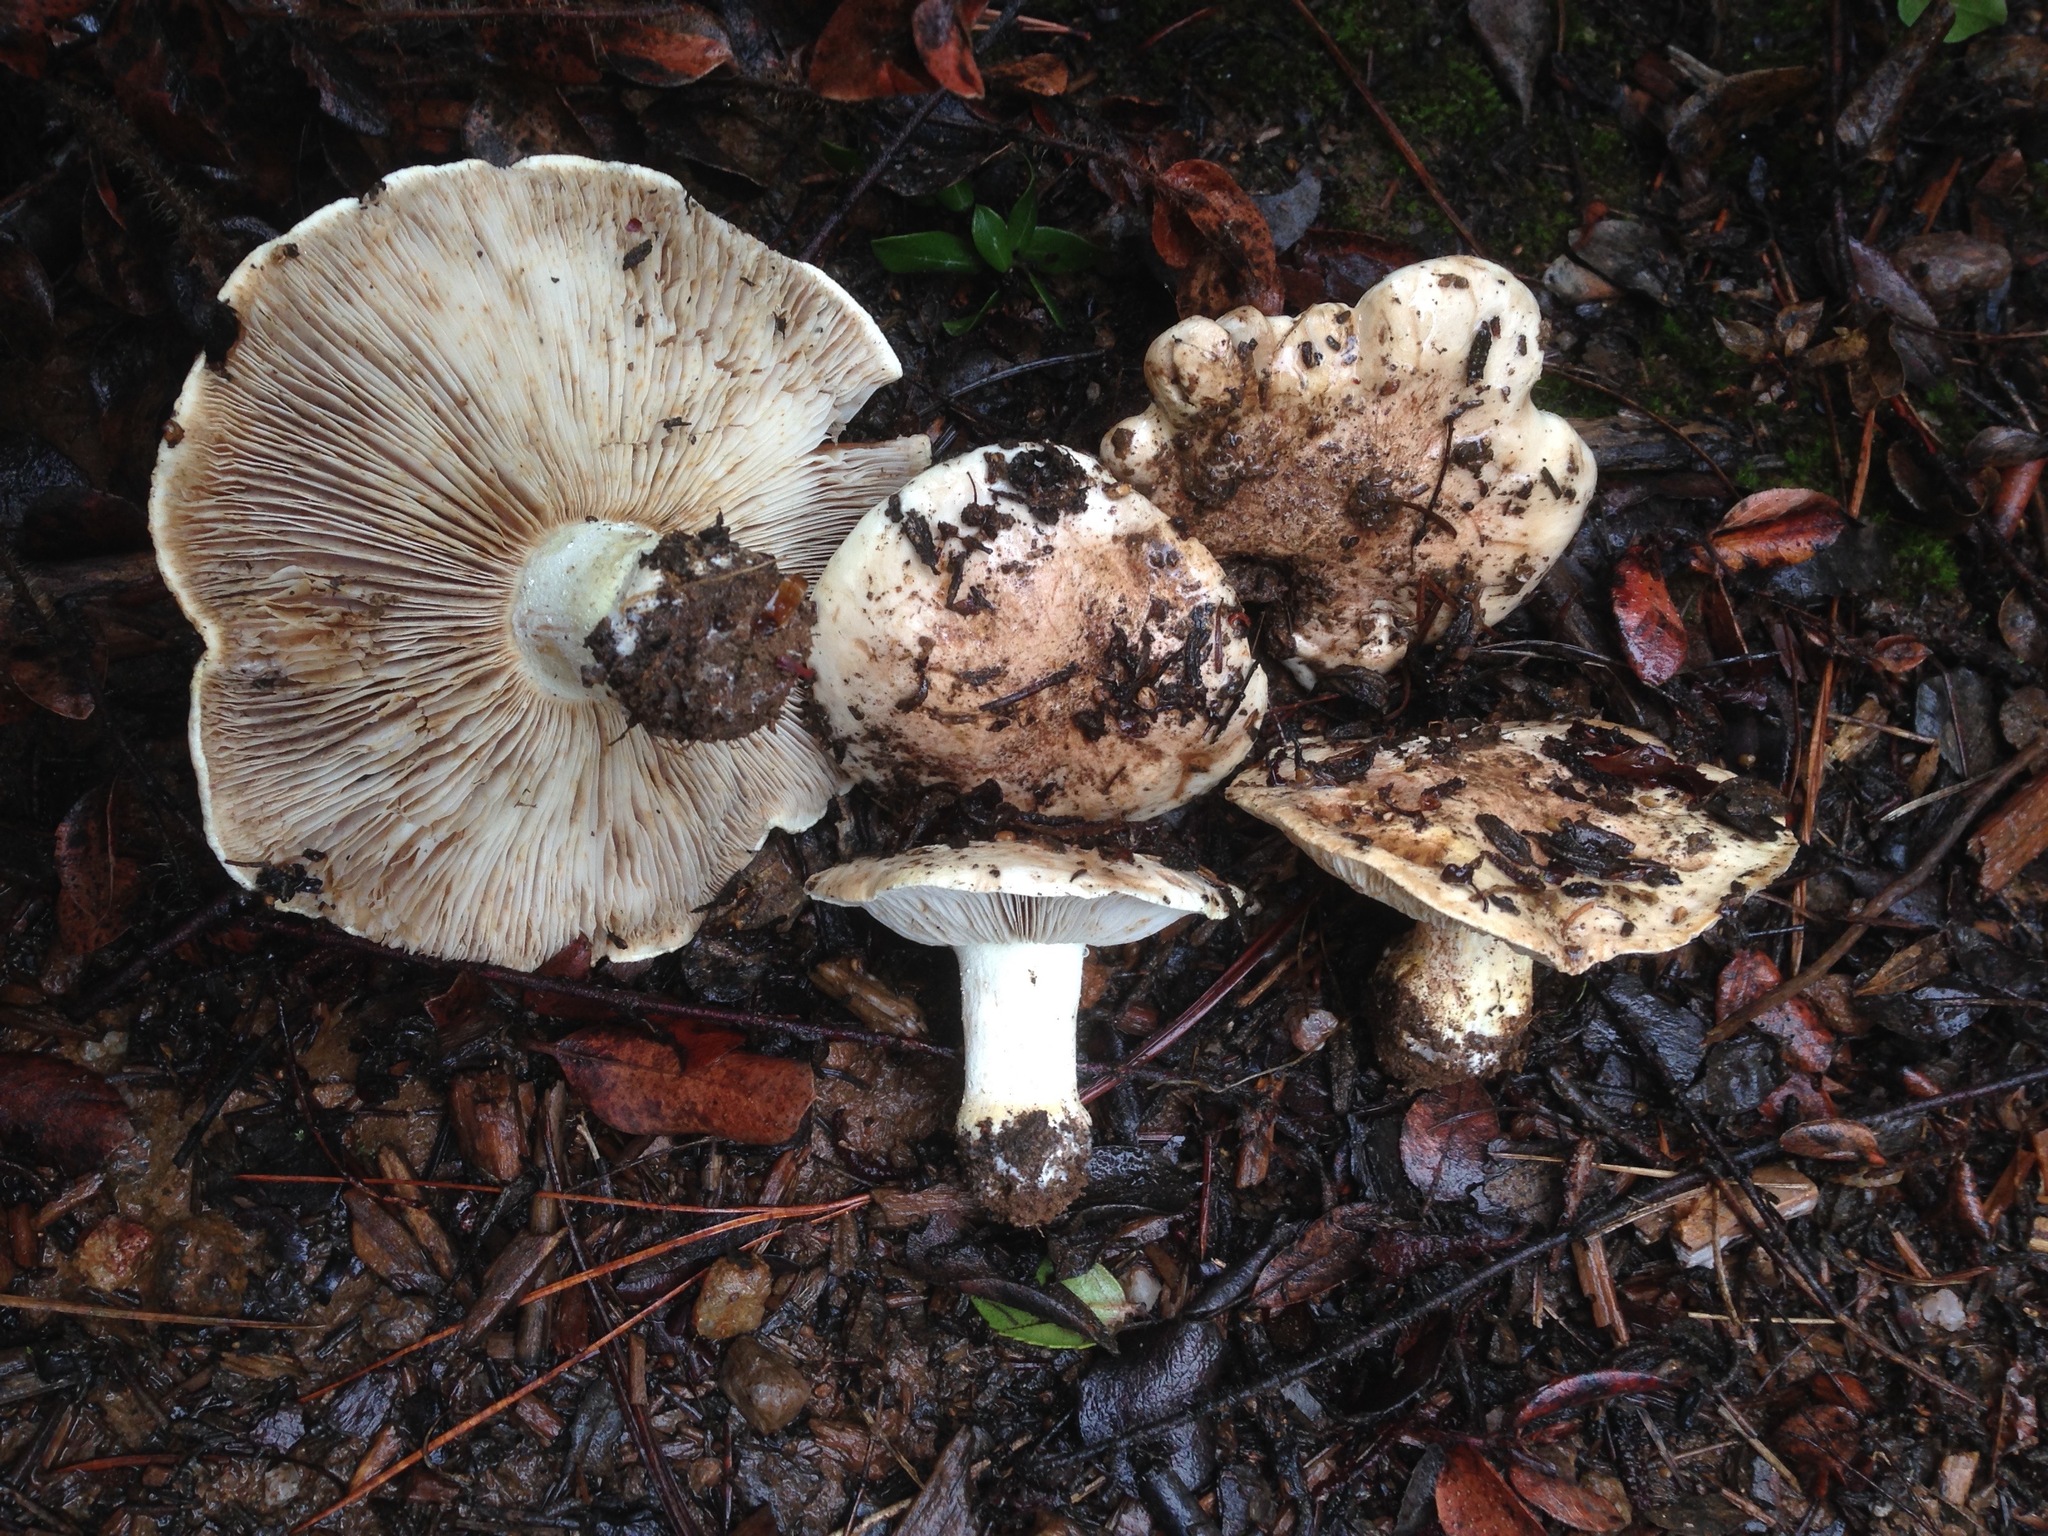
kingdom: Fungi
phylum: Basidiomycota
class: Agaricomycetes
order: Agaricales
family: Tricholomataceae
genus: Tricholoma
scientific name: Tricholoma manzanitae
